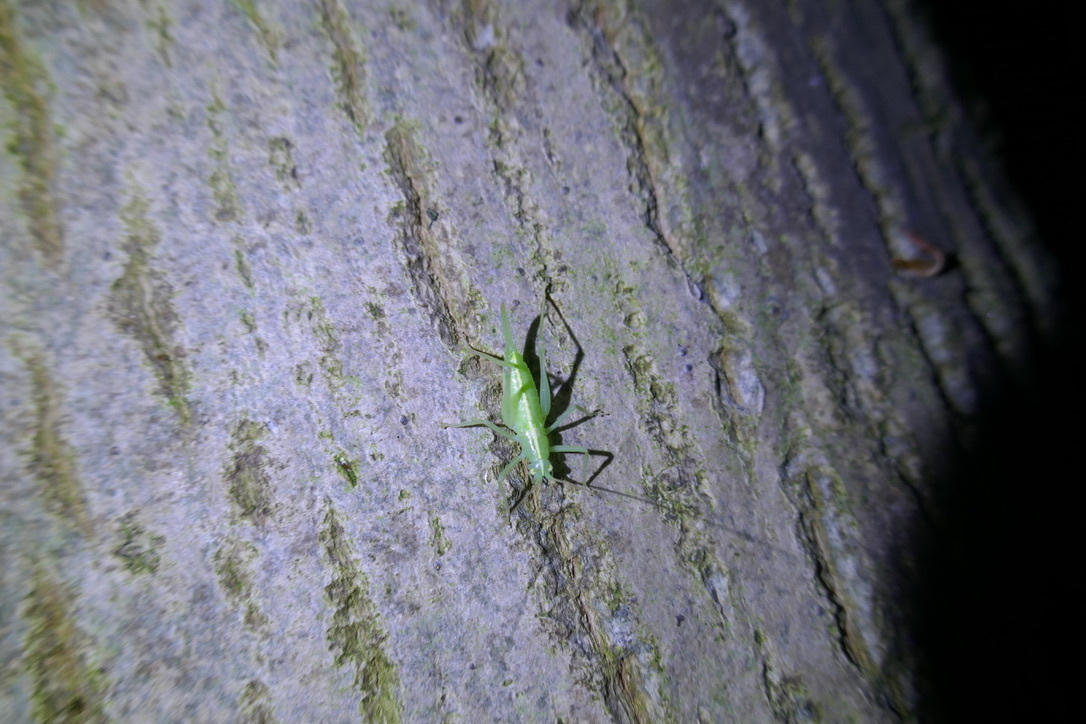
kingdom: Animalia
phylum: Arthropoda
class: Insecta
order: Orthoptera
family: Tettigoniidae
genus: Meconema
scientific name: Meconema meridionale
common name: Southern oak bush-cricket
